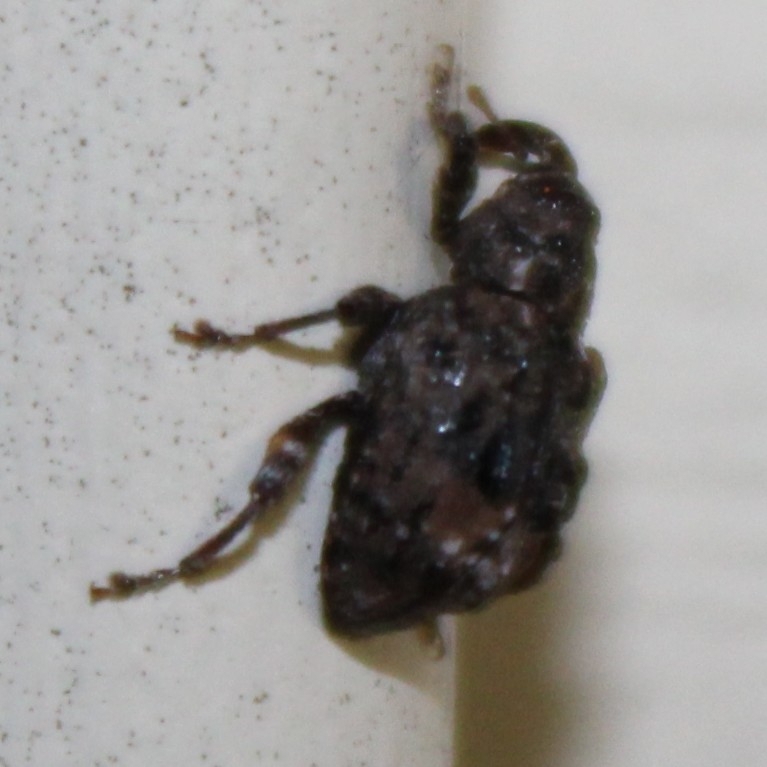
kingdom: Animalia
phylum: Arthropoda
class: Insecta
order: Coleoptera
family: Curculionidae
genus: Conotrachelus
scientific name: Conotrachelus nenuphar
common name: Plum curculio
